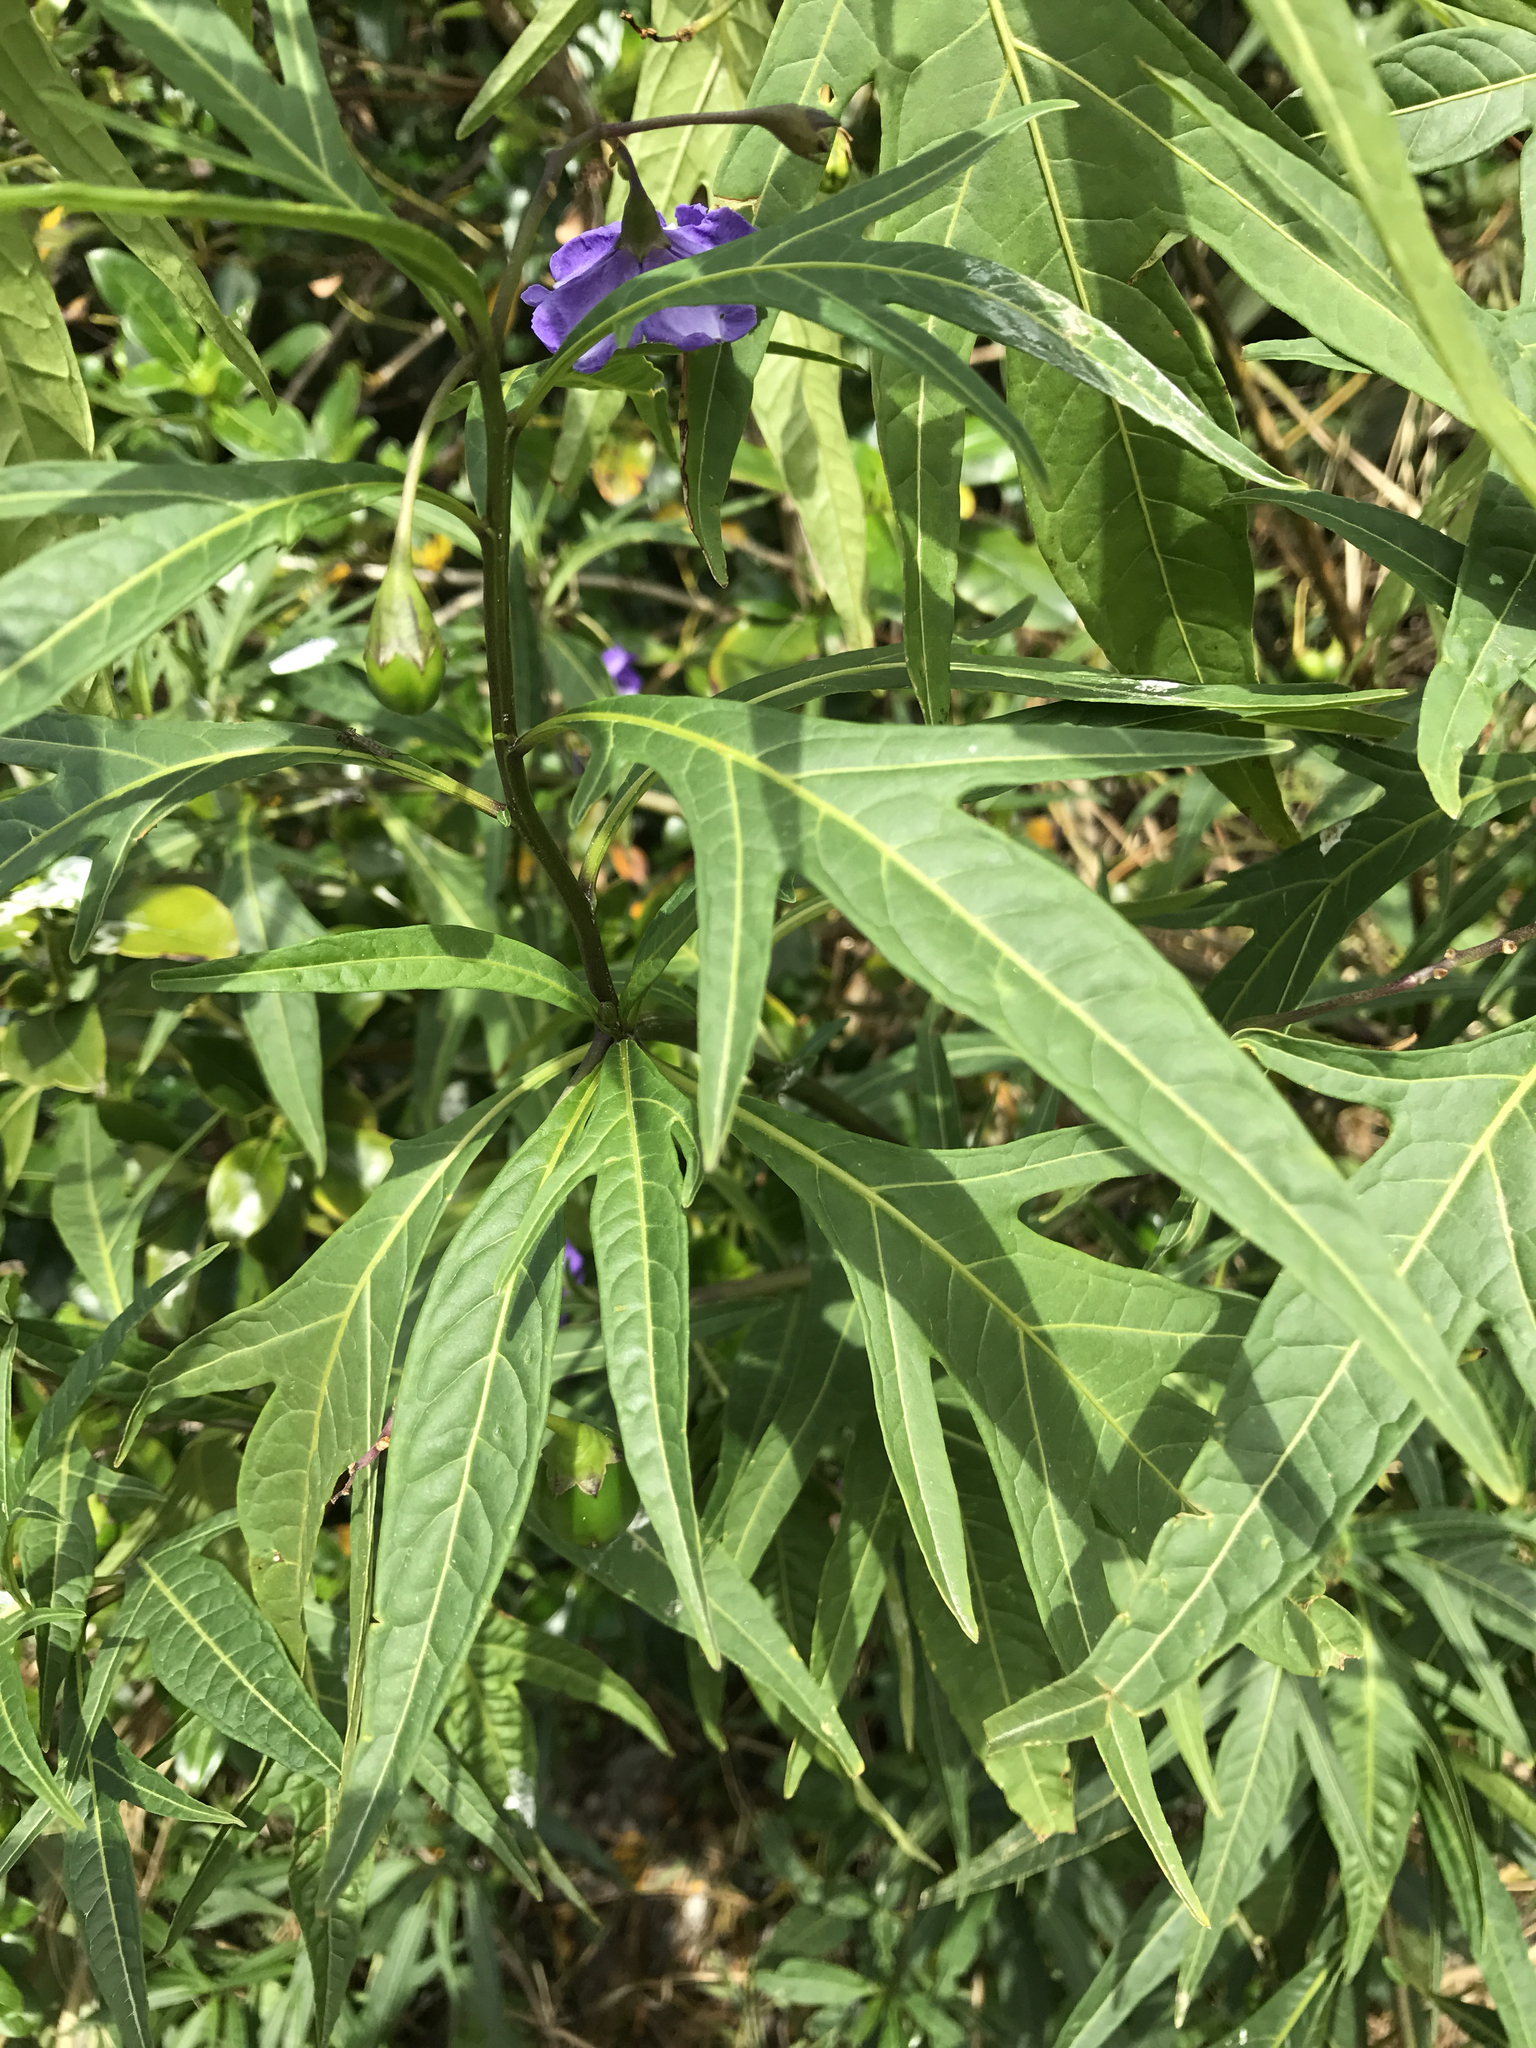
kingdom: Plantae
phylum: Tracheophyta
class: Magnoliopsida
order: Solanales
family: Solanaceae
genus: Solanum
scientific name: Solanum laciniatum
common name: Kangaroo-apple
